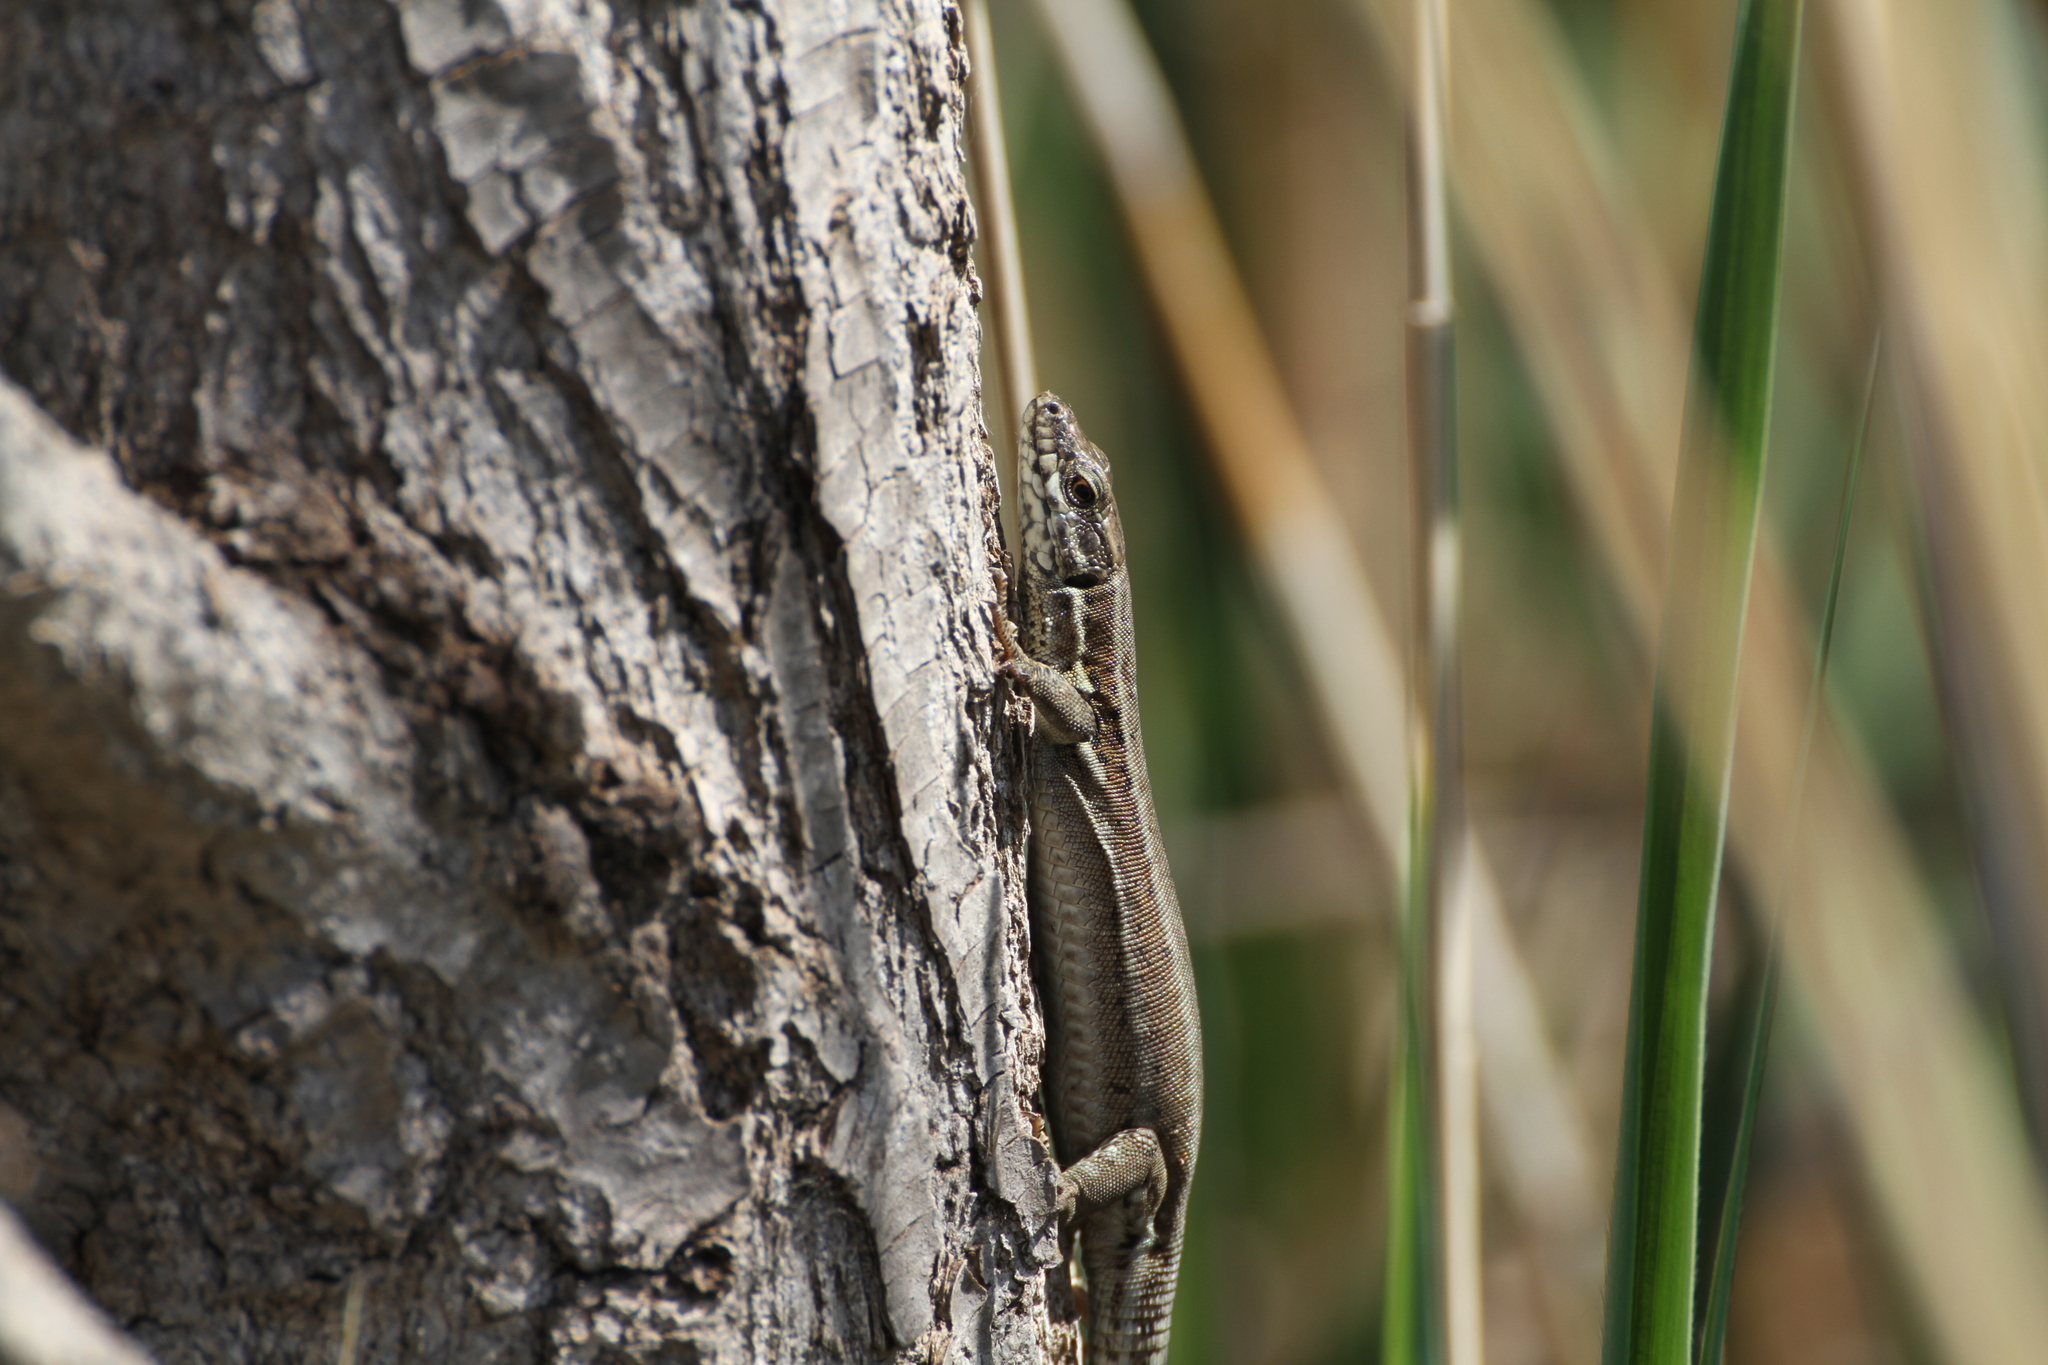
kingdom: Animalia
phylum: Chordata
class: Squamata
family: Lacertidae
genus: Podarcis
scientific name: Podarcis muralis
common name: Common wall lizard
